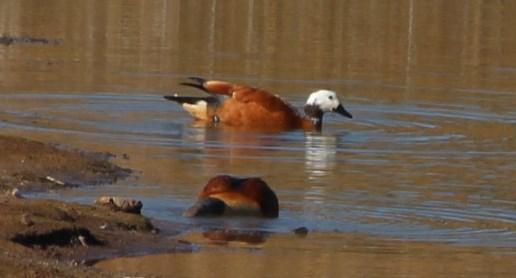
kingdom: Animalia
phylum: Chordata
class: Aves
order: Anseriformes
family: Anatidae
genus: Tadorna
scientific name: Tadorna cana
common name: South african shelduck
